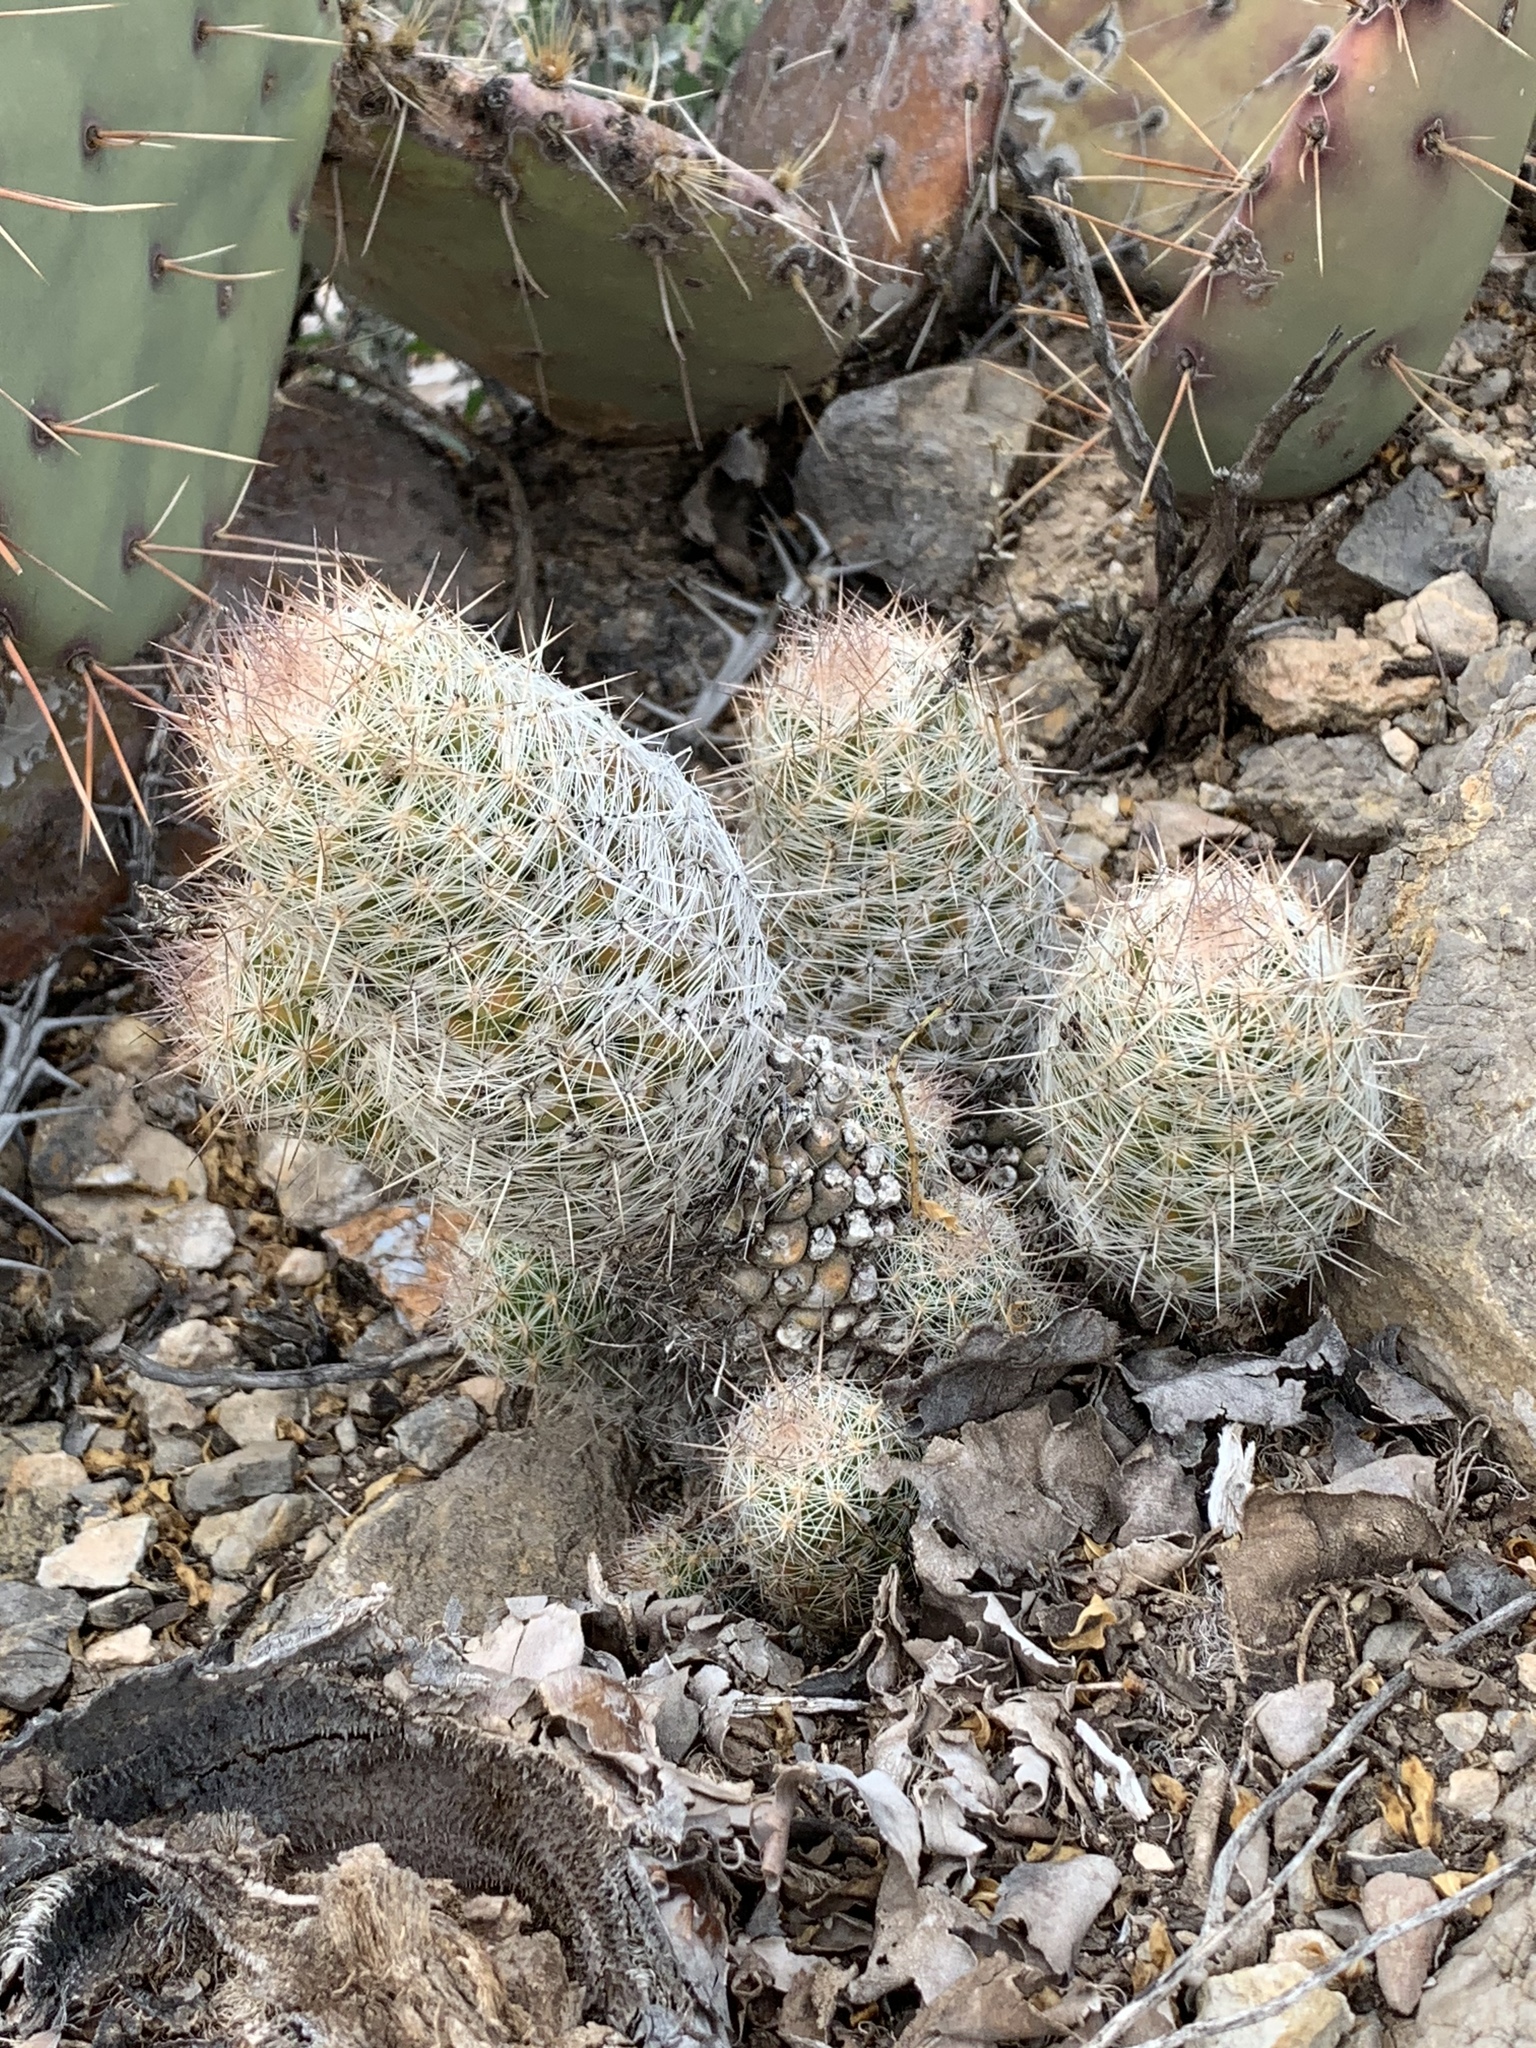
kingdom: Plantae
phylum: Tracheophyta
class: Magnoliopsida
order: Caryophyllales
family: Cactaceae
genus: Pelecyphora
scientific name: Pelecyphora tuberculosa
